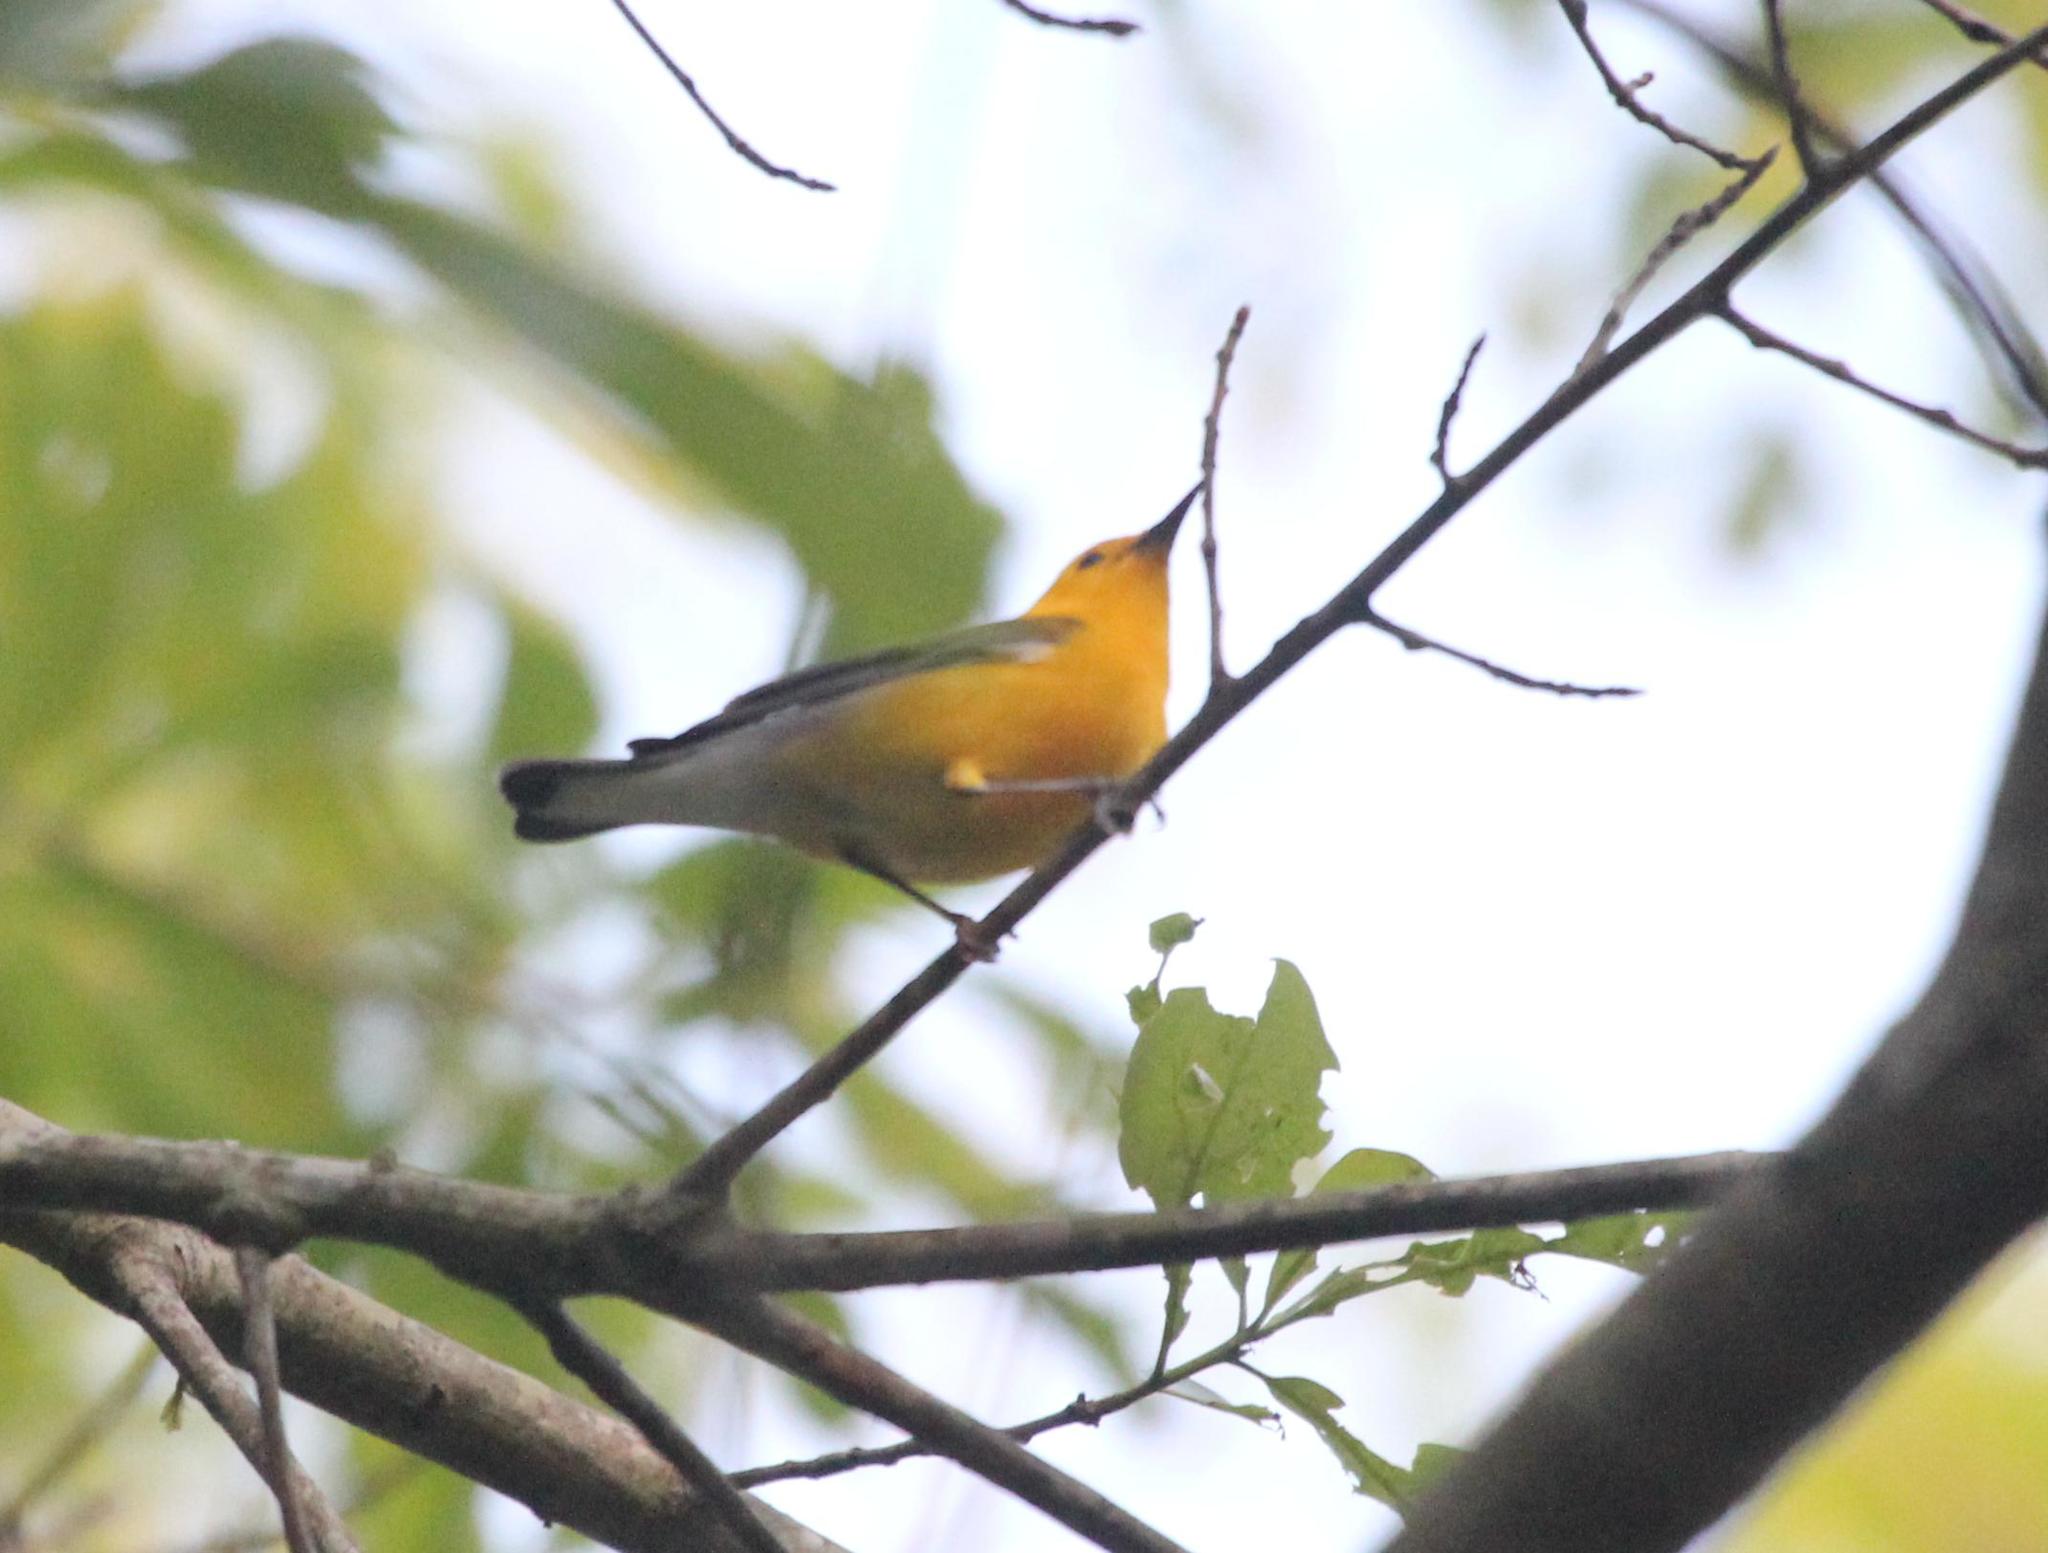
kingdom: Animalia
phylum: Chordata
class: Aves
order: Passeriformes
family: Parulidae
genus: Protonotaria
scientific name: Protonotaria citrea
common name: Prothonotary warbler
